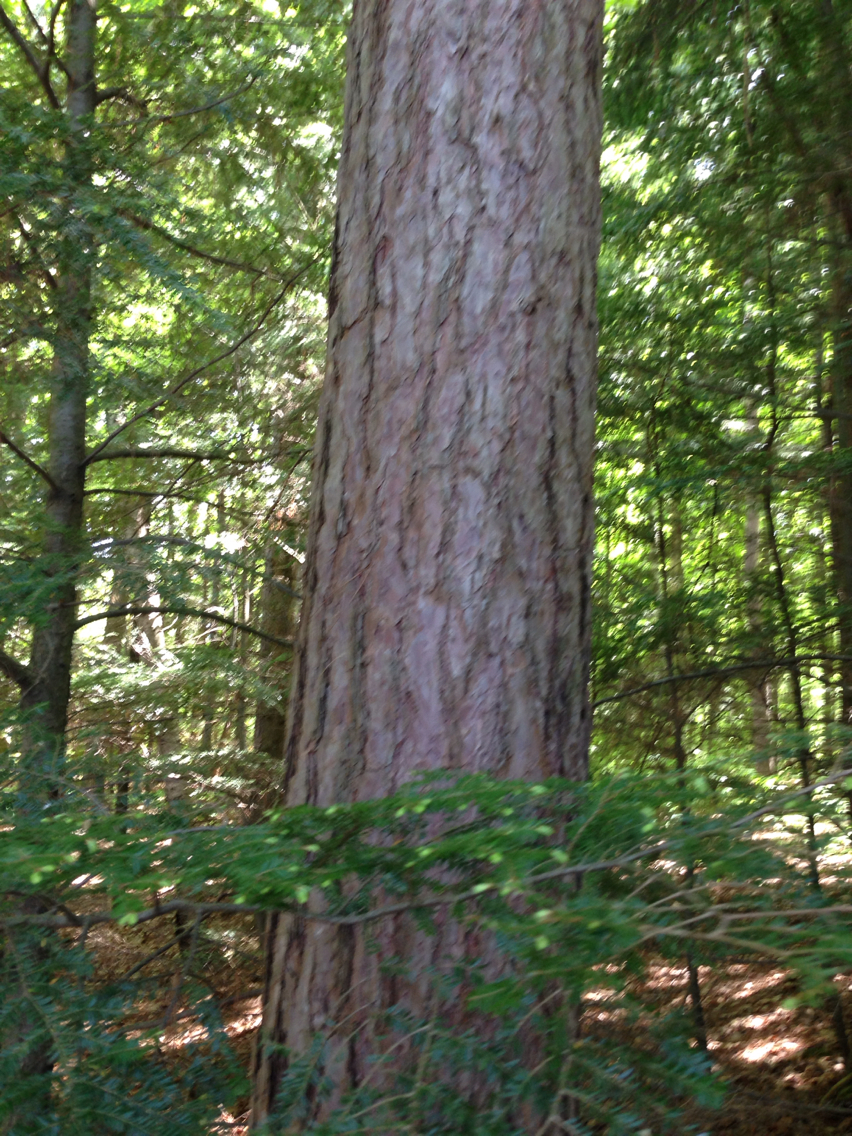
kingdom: Plantae
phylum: Tracheophyta
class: Pinopsida
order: Pinales
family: Pinaceae
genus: Pinus
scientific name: Pinus resinosa
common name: Norway pine
